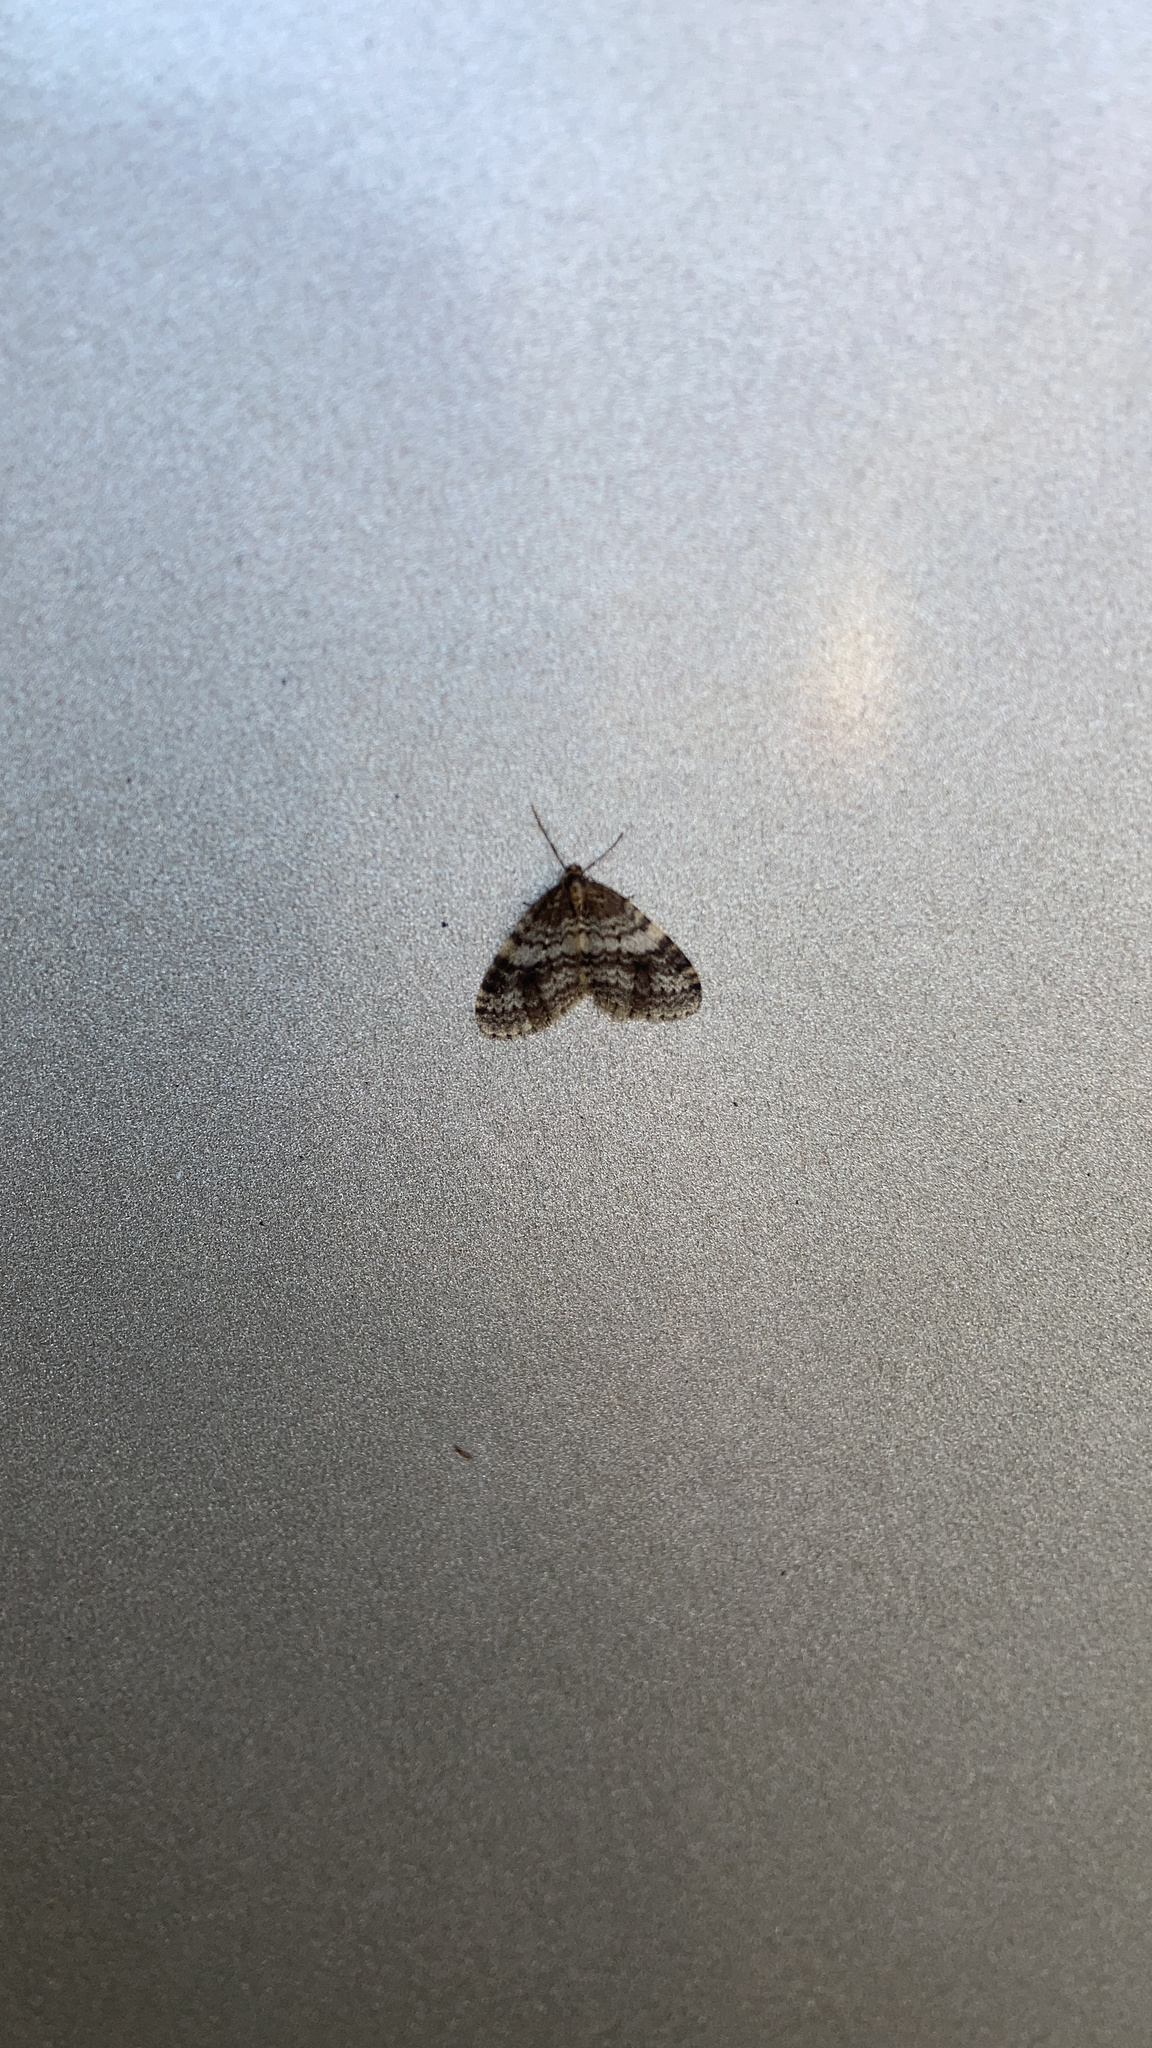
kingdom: Animalia
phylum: Arthropoda
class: Insecta
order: Lepidoptera
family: Geometridae
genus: Operophtera
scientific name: Operophtera occidentalis
